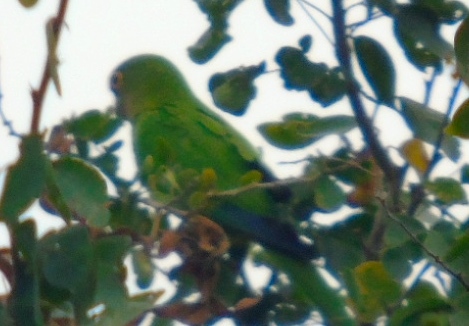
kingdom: Animalia
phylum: Chordata
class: Aves
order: Psittaciformes
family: Psittacidae
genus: Aratinga
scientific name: Aratinga canicularis
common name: Orange-fronted parakeet
